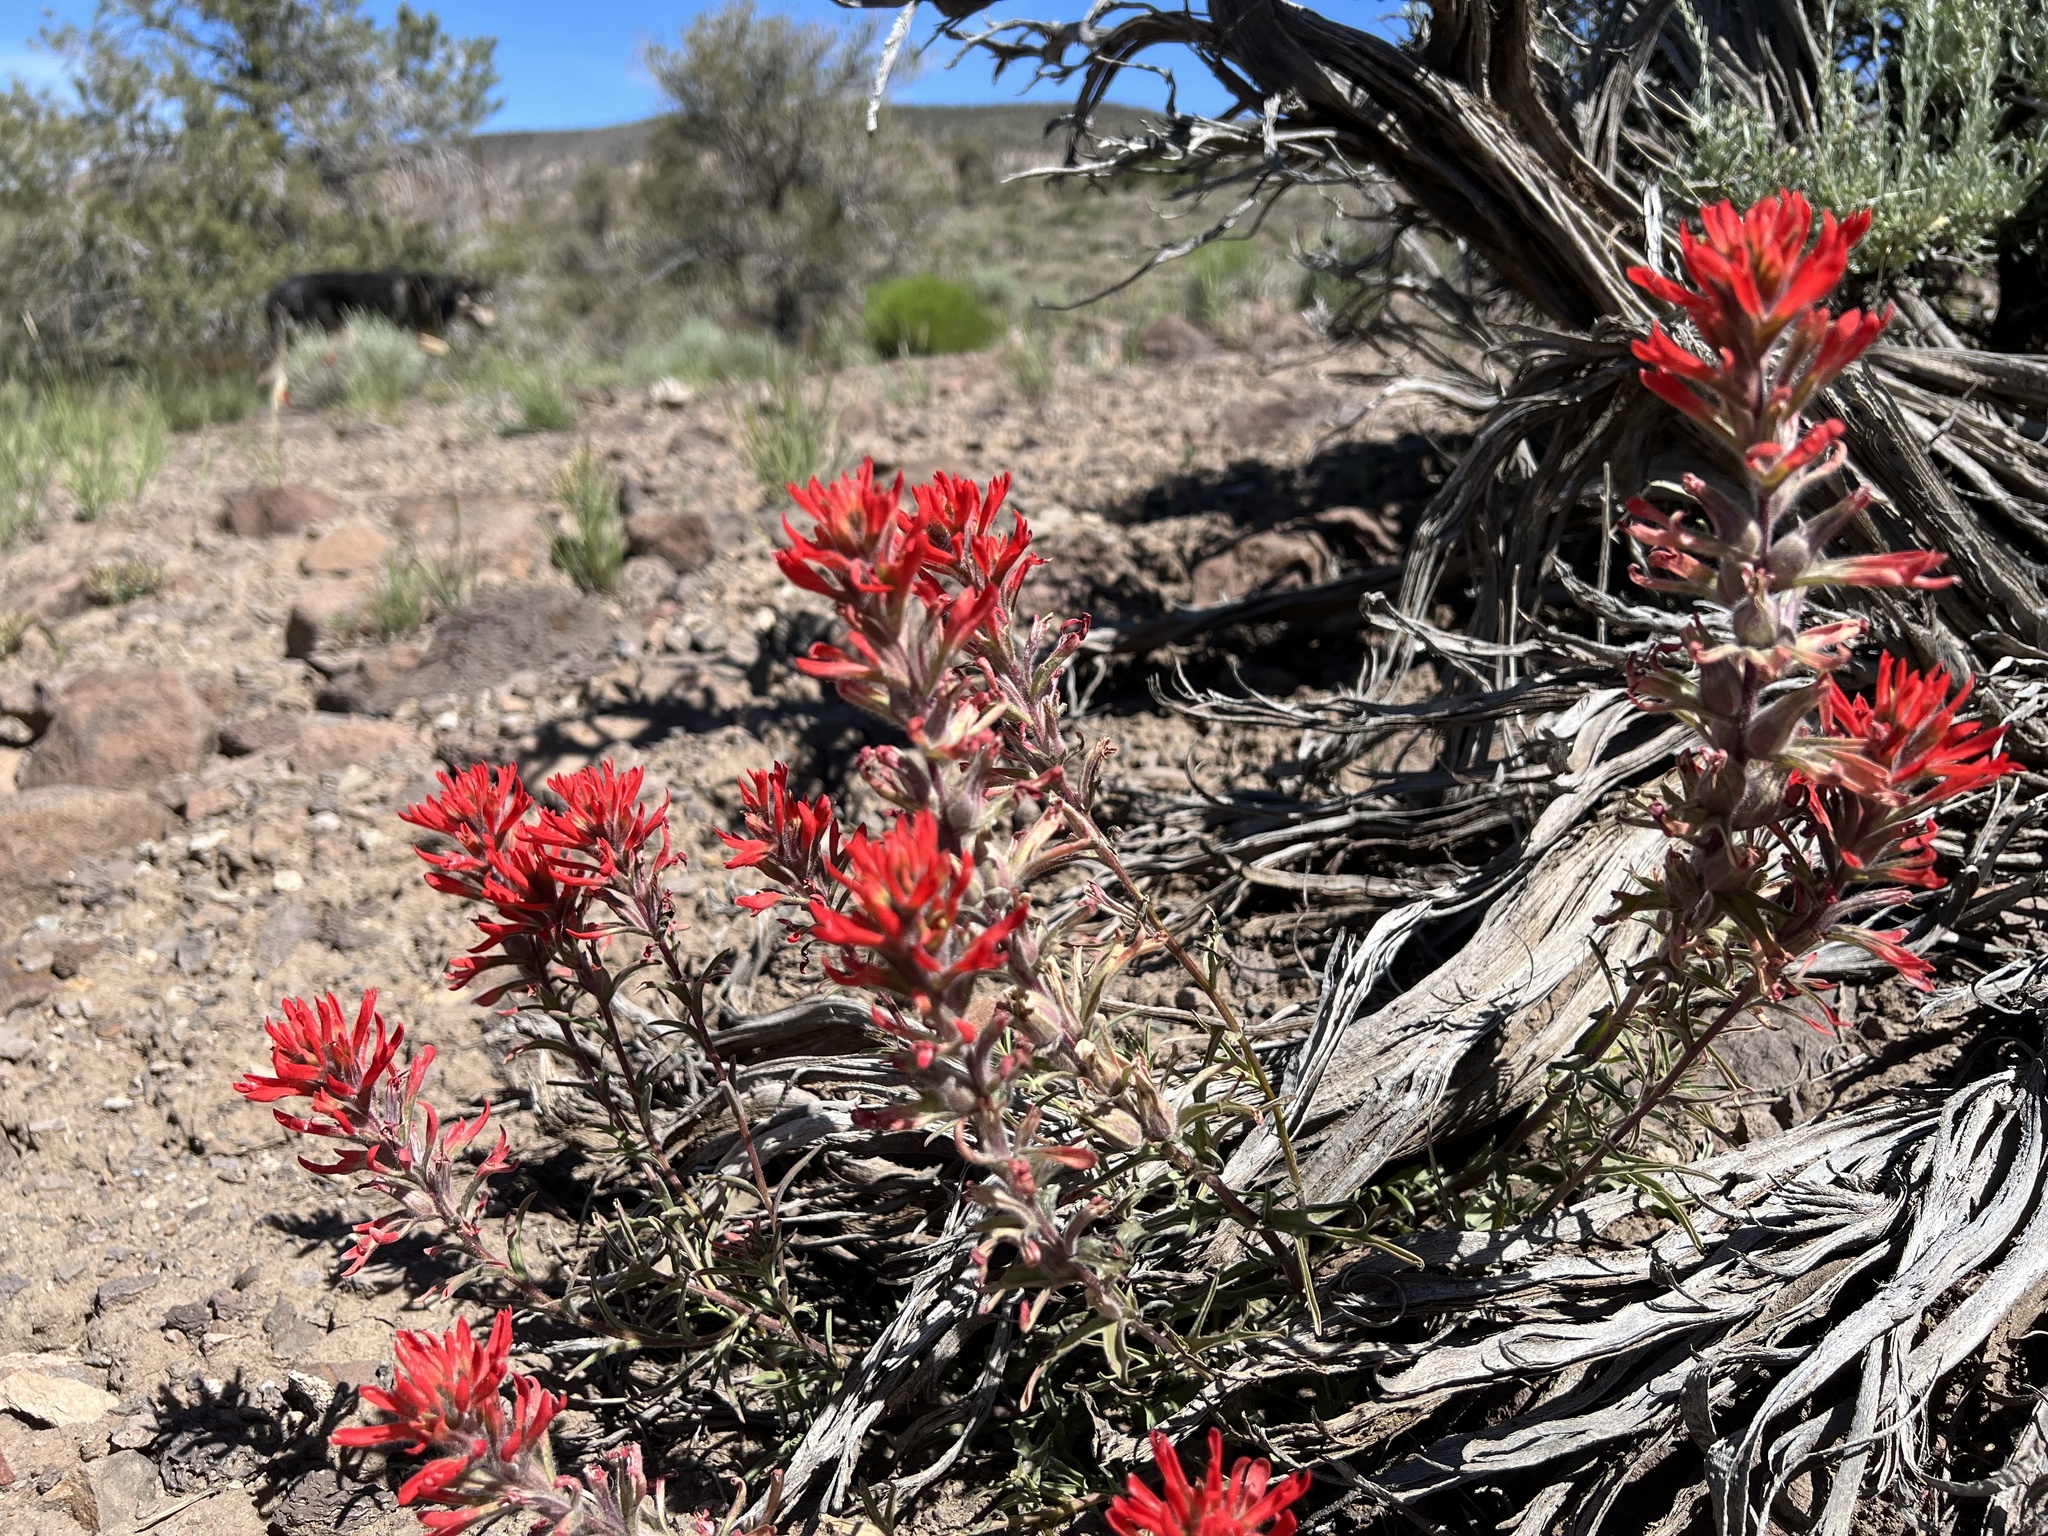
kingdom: Plantae
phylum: Tracheophyta
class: Magnoliopsida
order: Lamiales
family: Orobanchaceae
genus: Castilleja
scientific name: Castilleja chromosa
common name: Desert paintbrush
